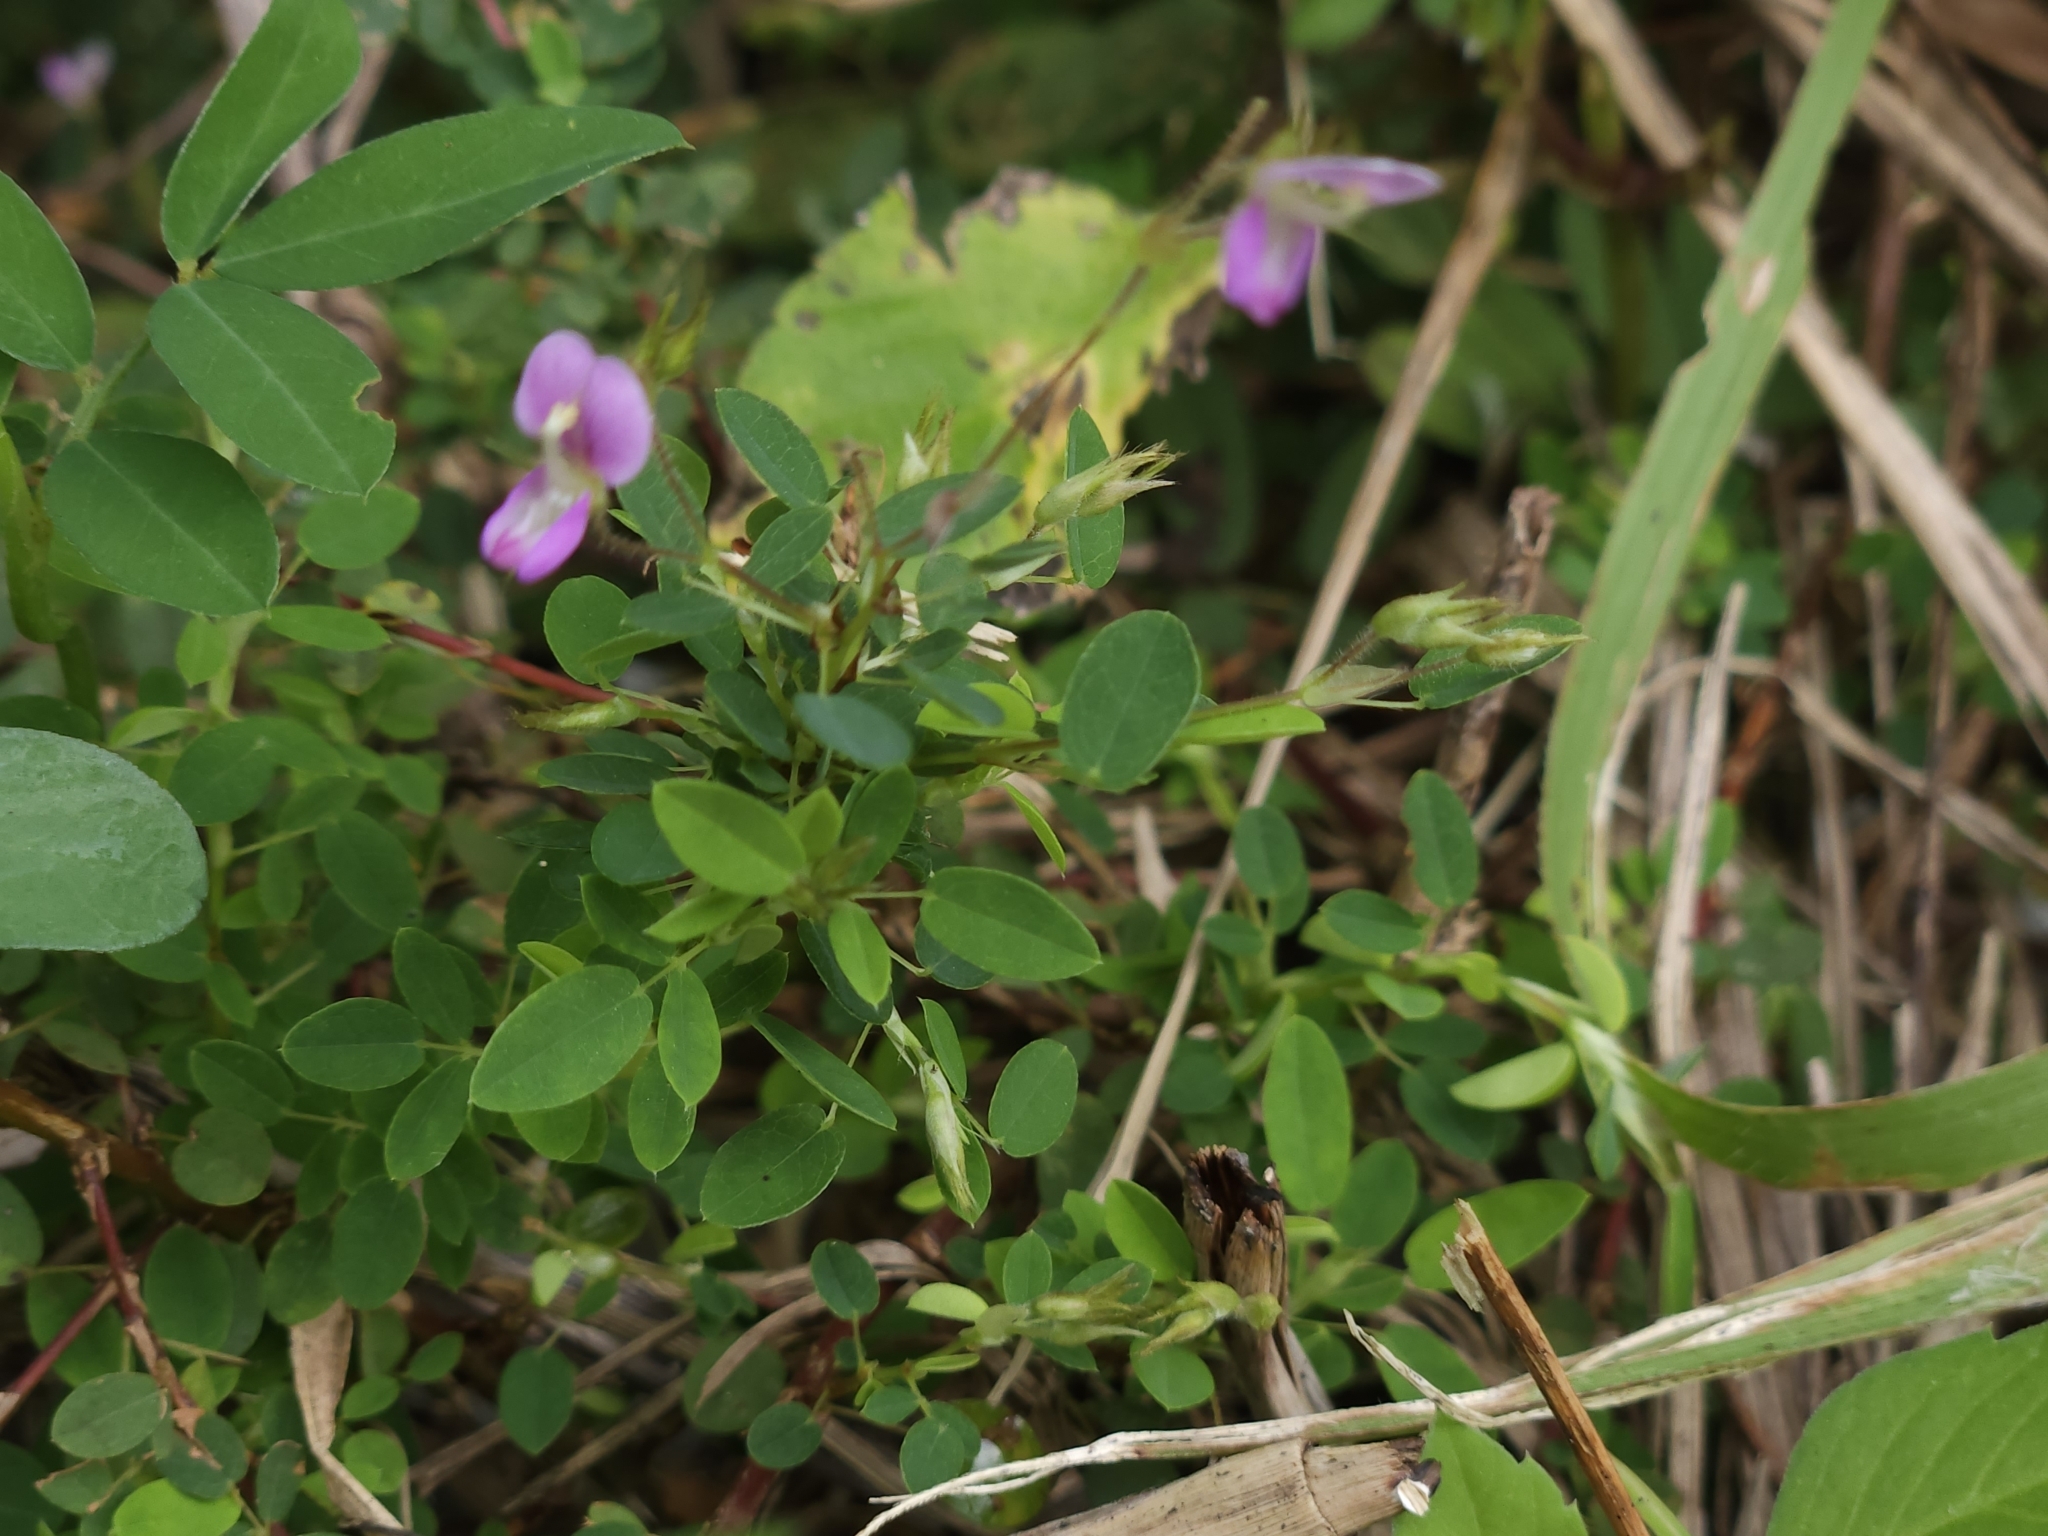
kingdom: Plantae
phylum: Tracheophyta
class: Magnoliopsida
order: Fabales
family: Fabaceae
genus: Leptodesmia
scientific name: Leptodesmia microphylla
